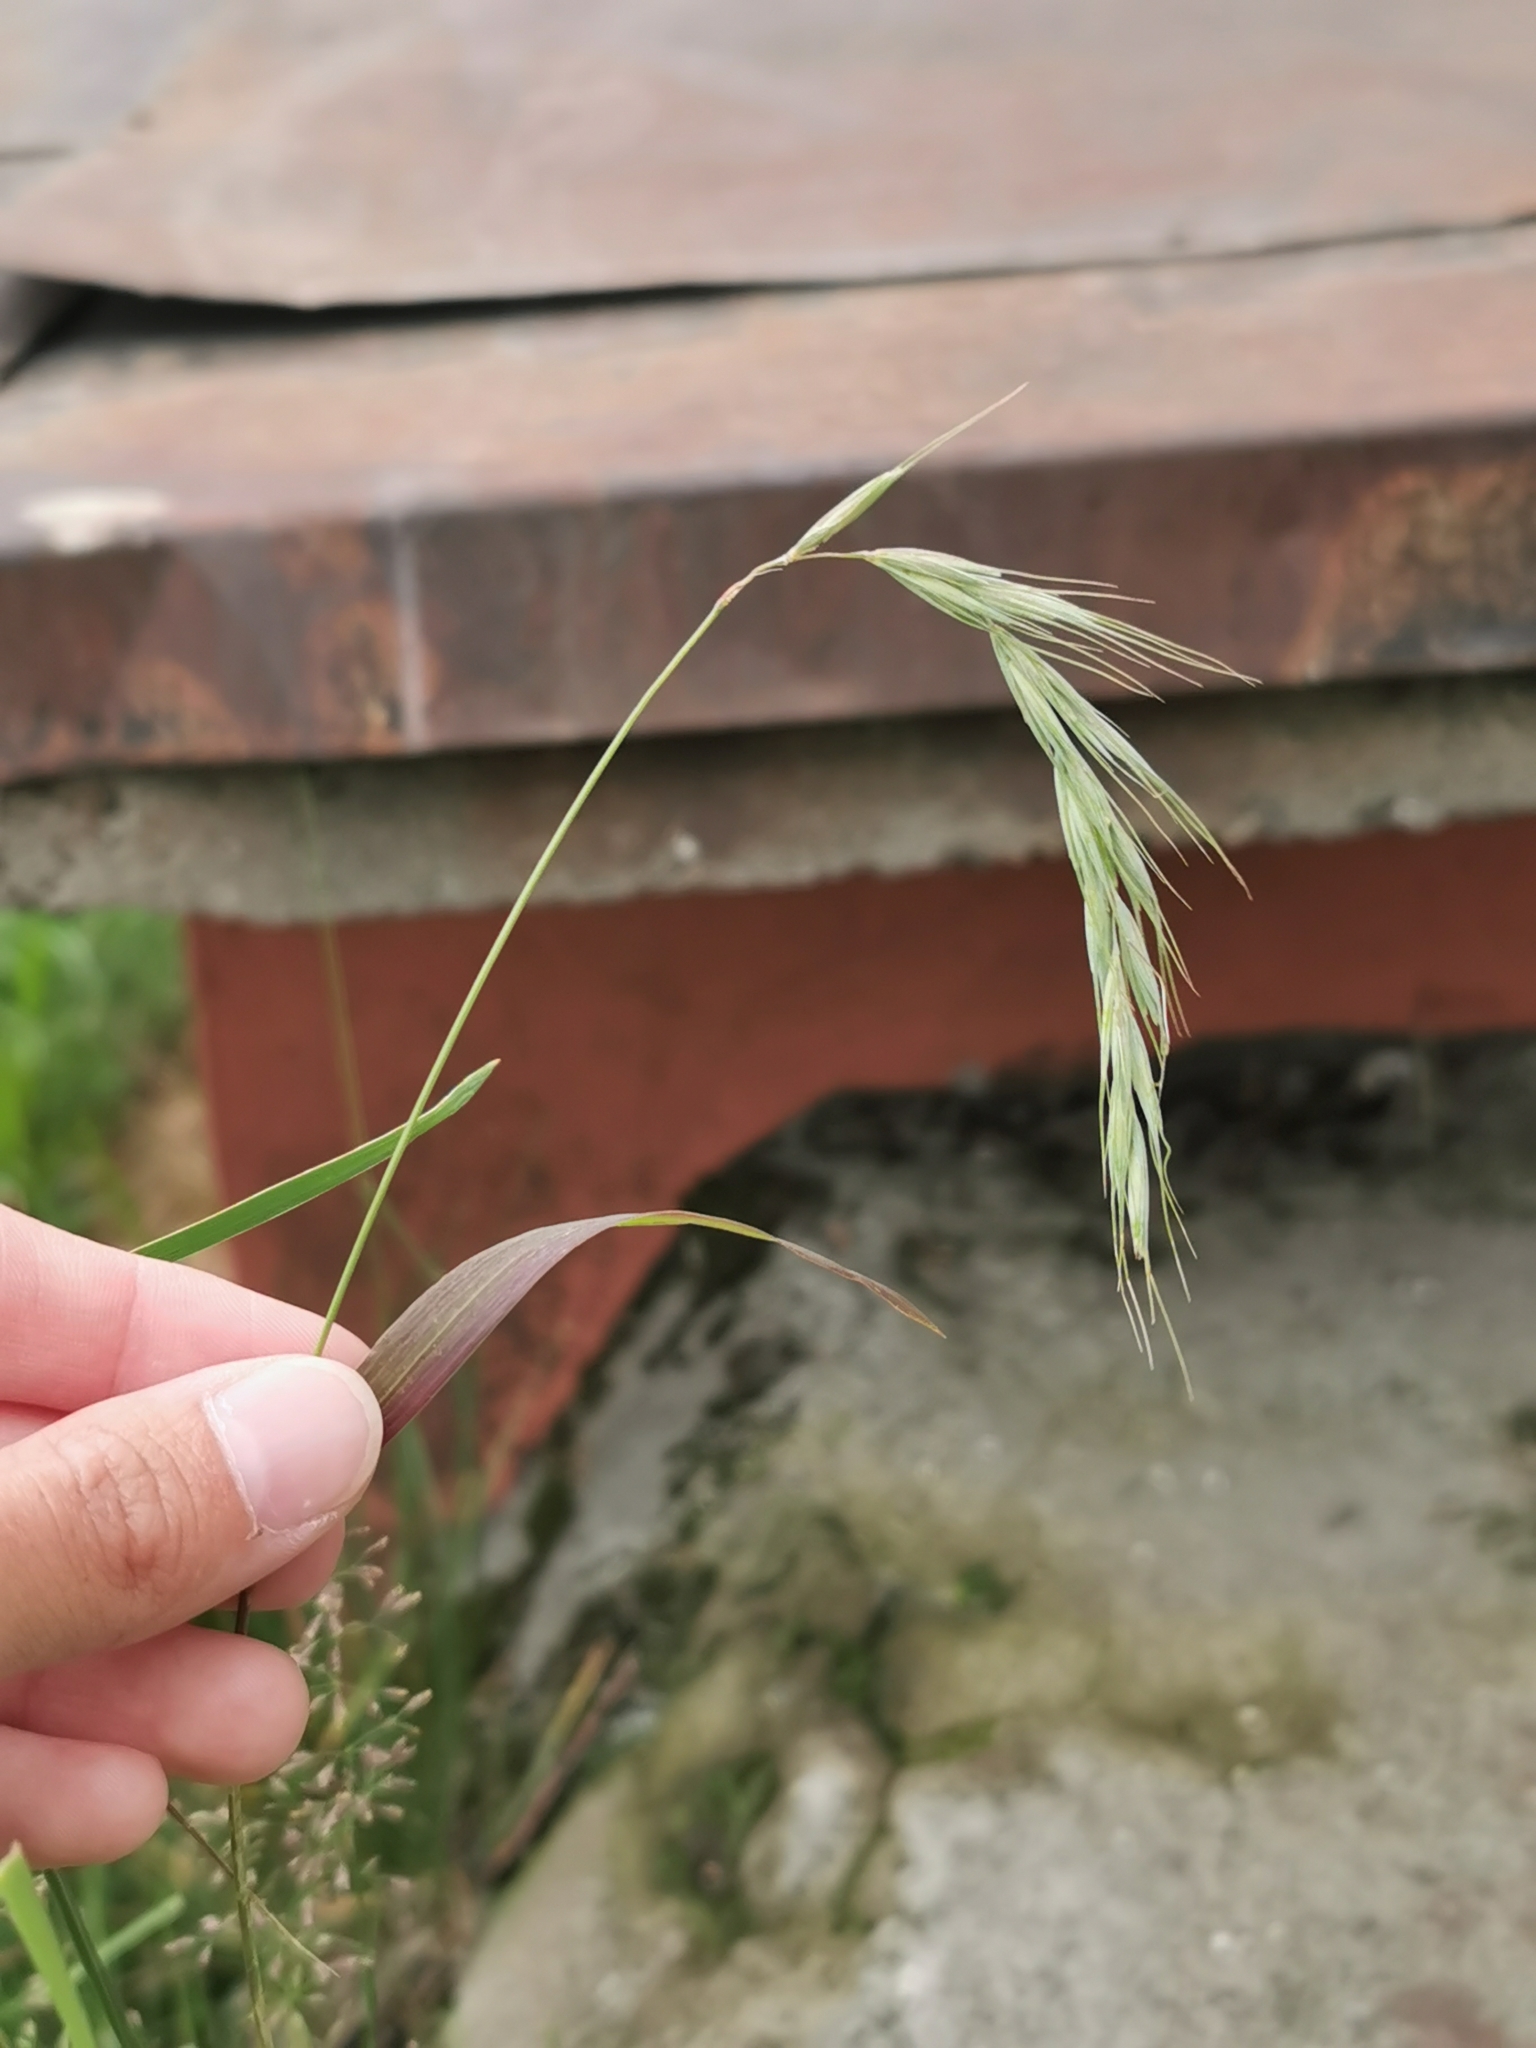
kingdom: Plantae
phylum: Tracheophyta
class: Liliopsida
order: Poales
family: Poaceae
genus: Elymus
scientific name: Elymus sibiricus
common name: Siberian wildrye
